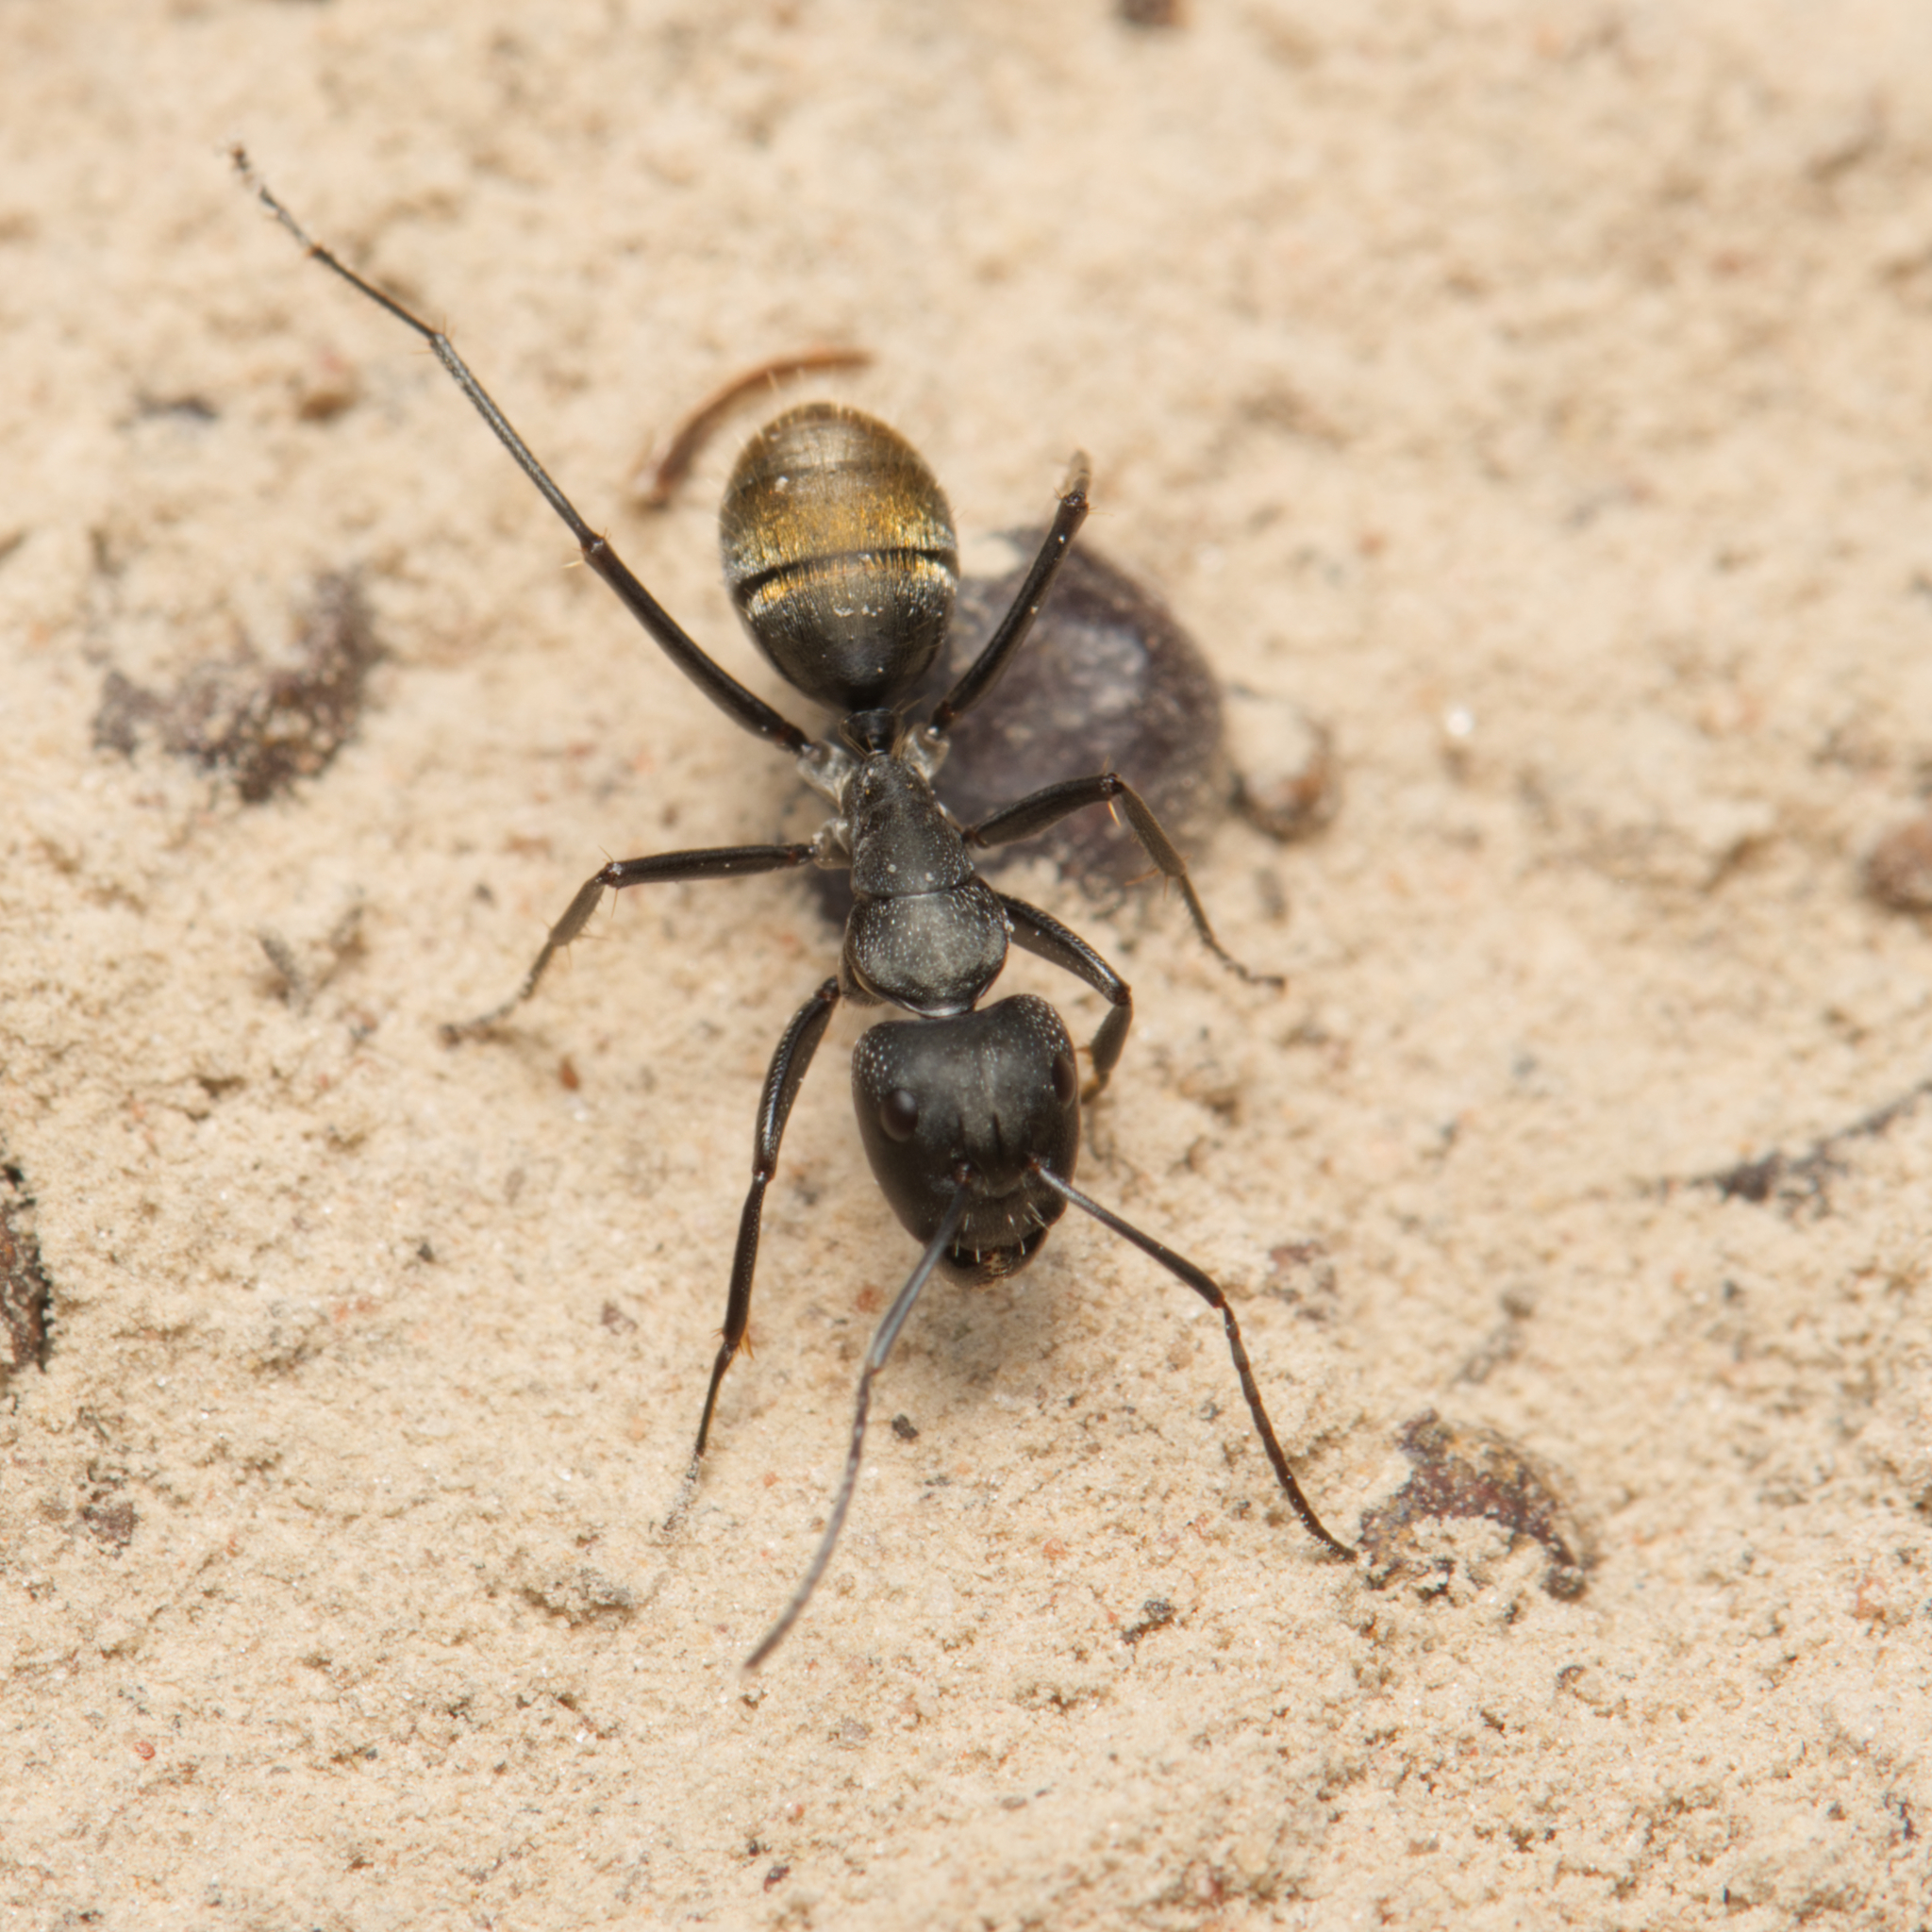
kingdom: Animalia
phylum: Arthropoda
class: Insecta
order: Hymenoptera
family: Formicidae
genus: Camponotus
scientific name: Camponotus aeneopilosus
